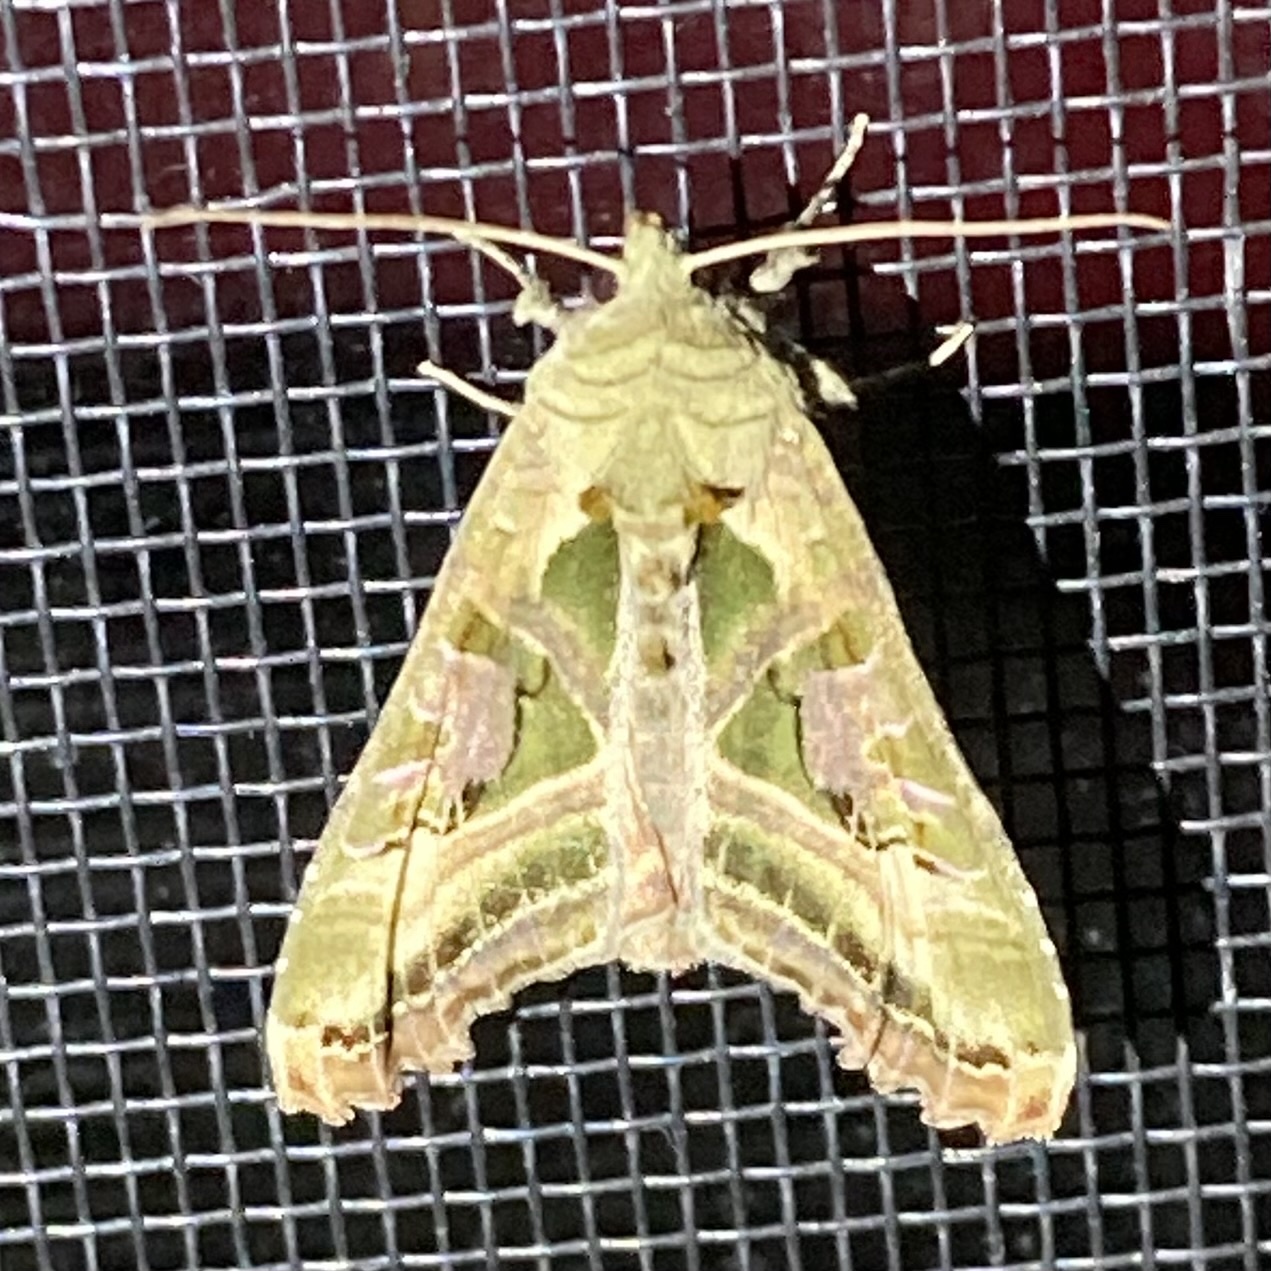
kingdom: Animalia
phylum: Arthropoda
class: Insecta
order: Lepidoptera
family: Noctuidae
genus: Phlogophora
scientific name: Phlogophora iris
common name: Olive angle shades
